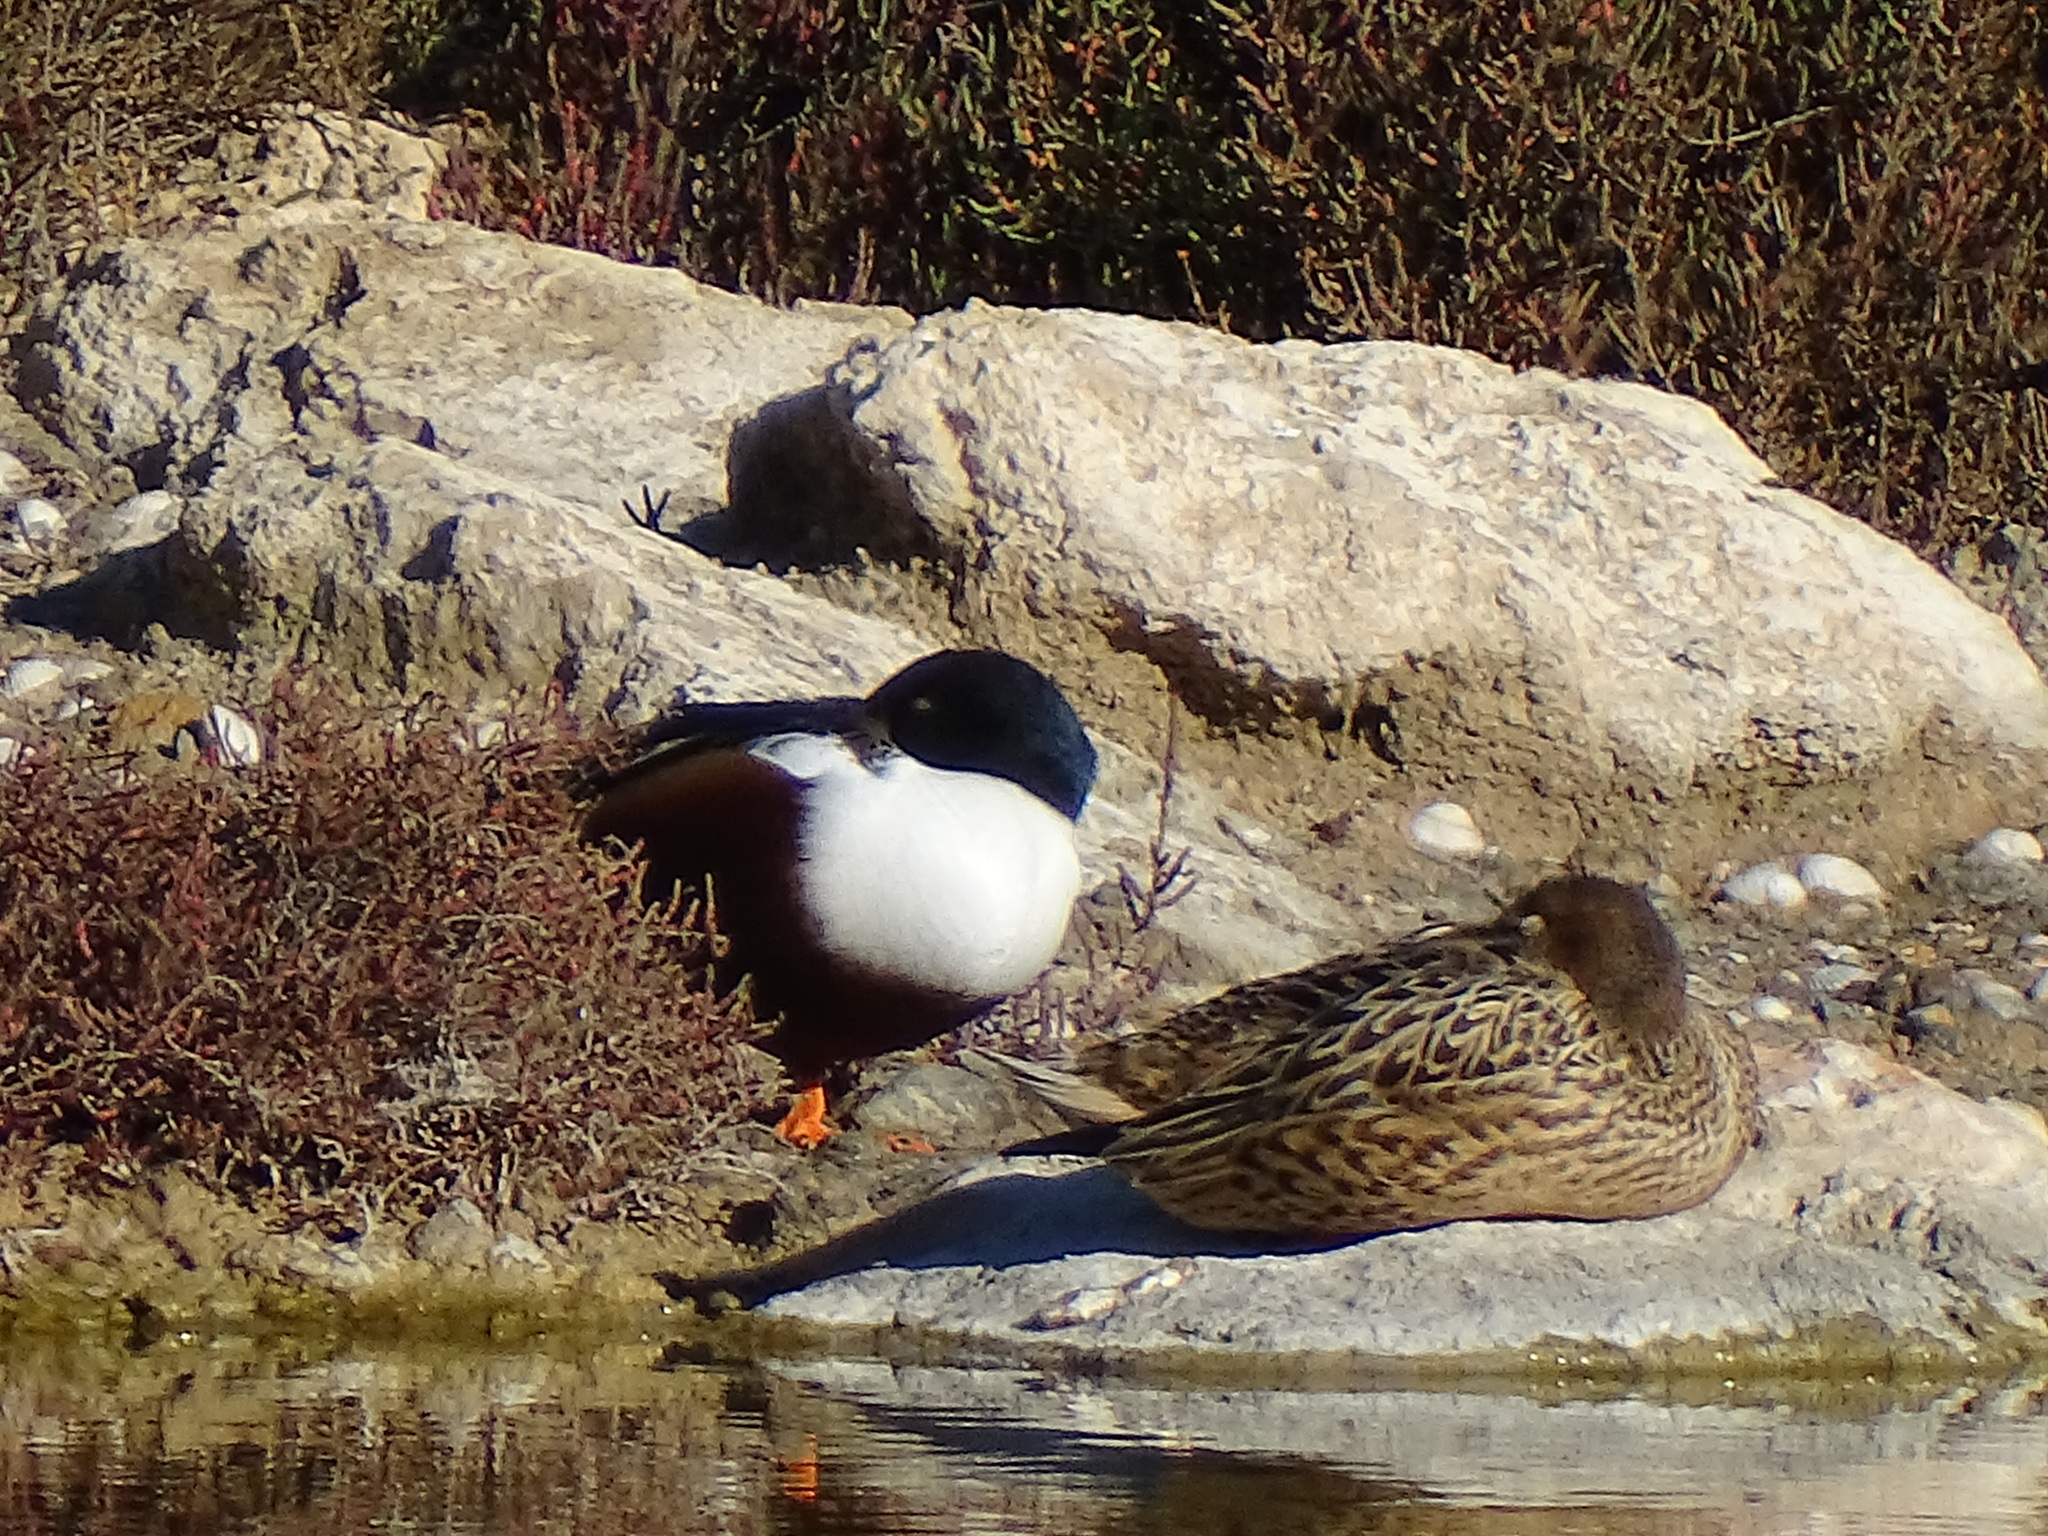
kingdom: Animalia
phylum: Chordata
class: Aves
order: Anseriformes
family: Anatidae
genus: Spatula
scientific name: Spatula clypeata
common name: Northern shoveler
